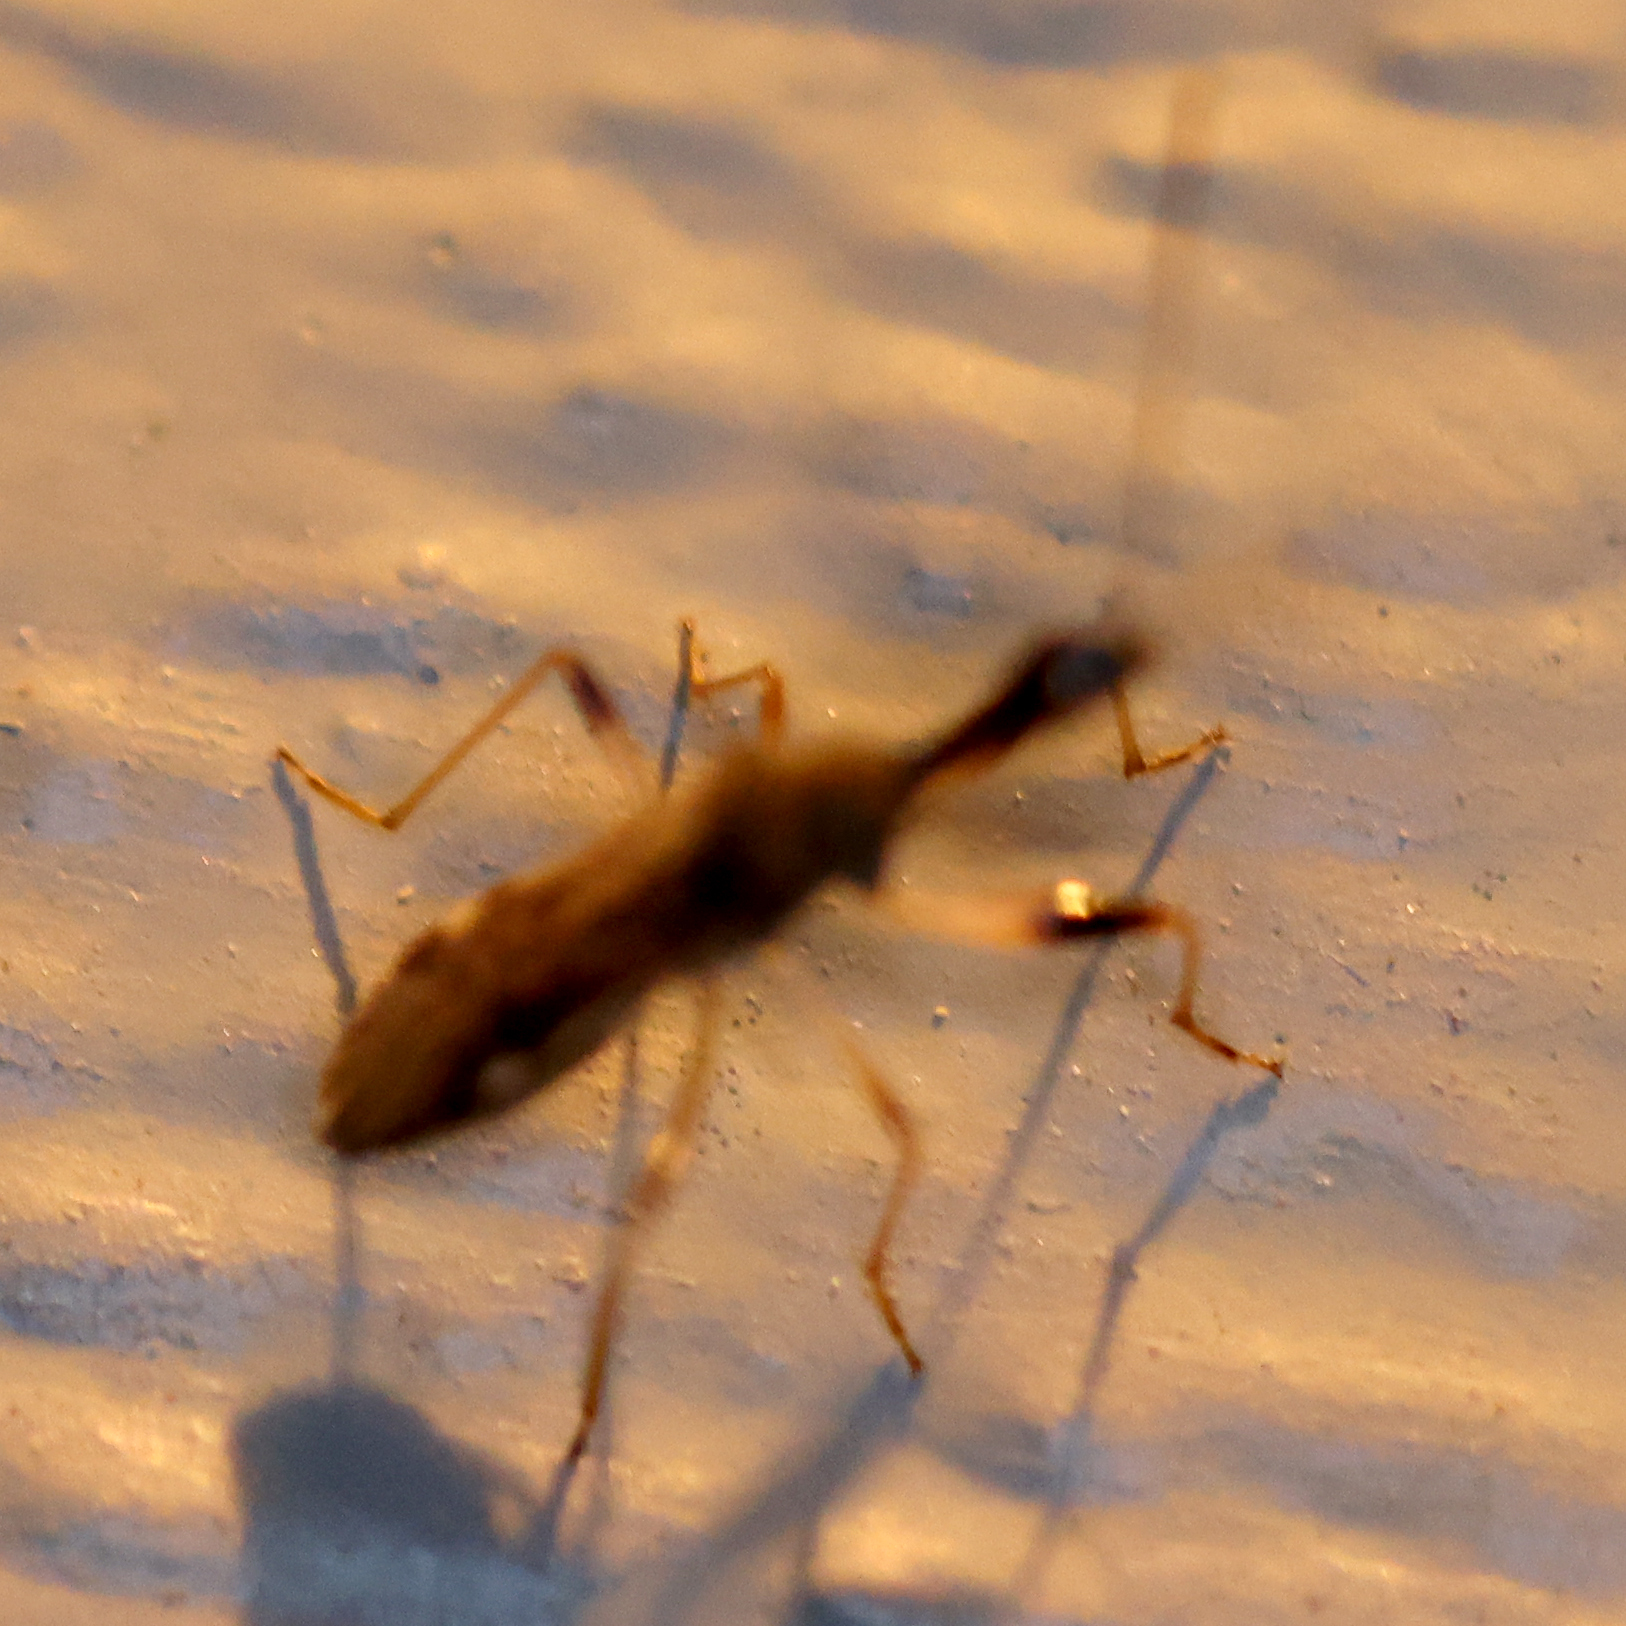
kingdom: Animalia
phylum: Arthropoda
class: Insecta
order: Hemiptera
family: Rhyparochromidae
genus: Myodocha
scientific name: Myodocha serripes
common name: Long-necked seed bug
